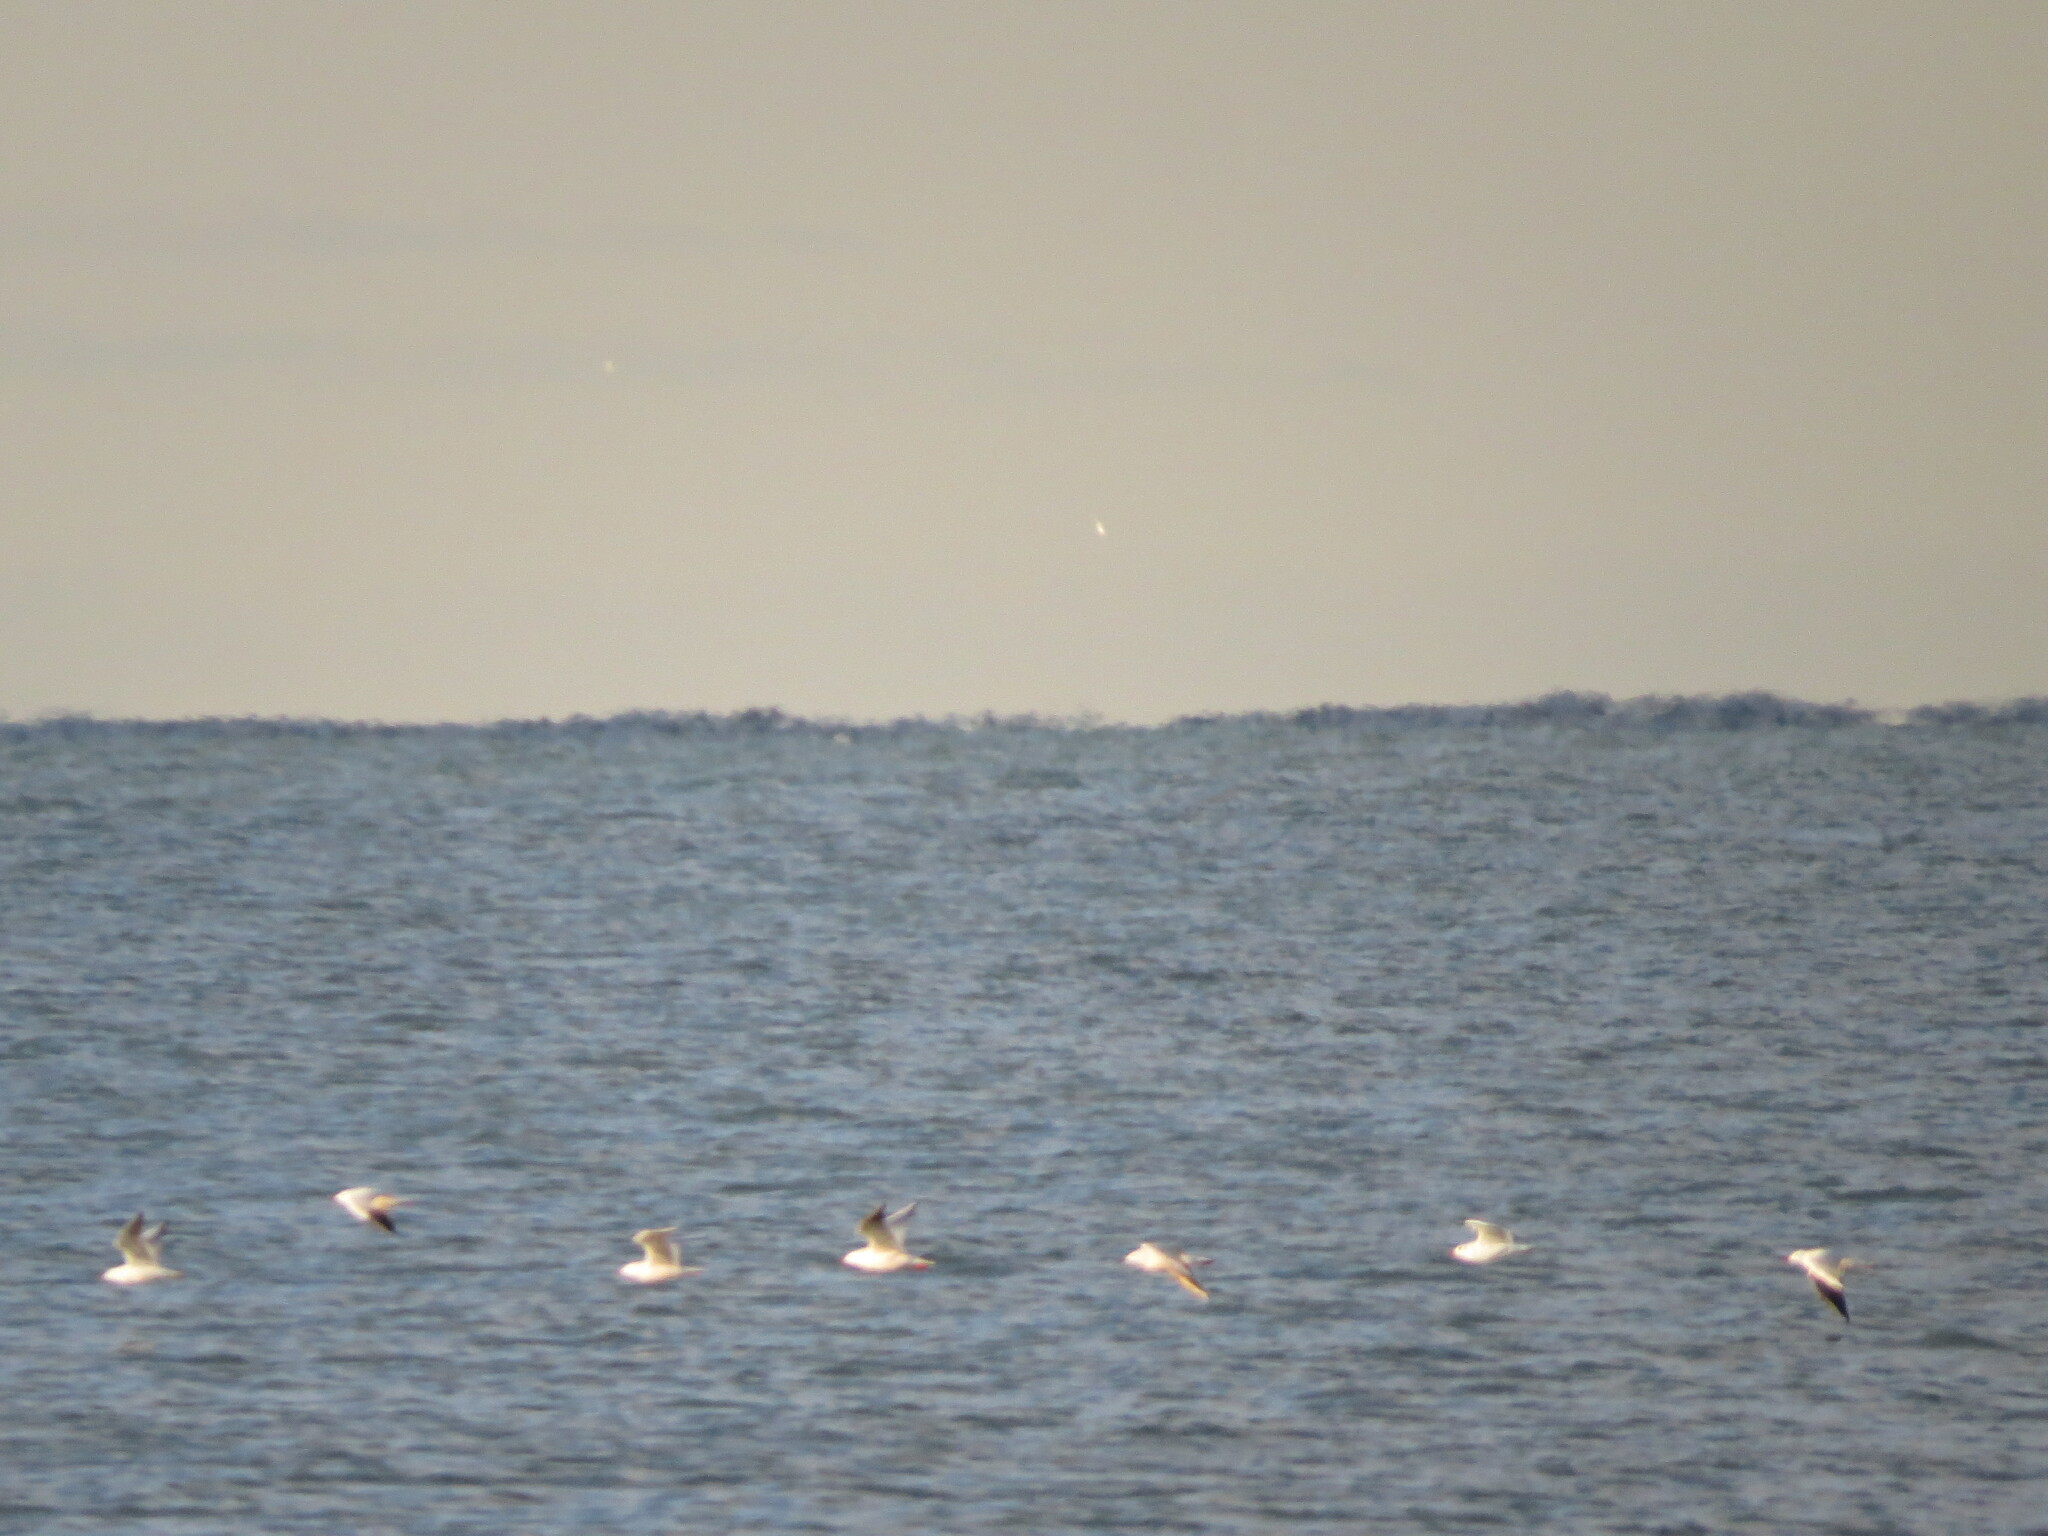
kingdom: Animalia
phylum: Chordata
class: Aves
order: Charadriiformes
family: Laridae
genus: Chroicocephalus
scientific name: Chroicocephalus genei
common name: Slender-billed gull
